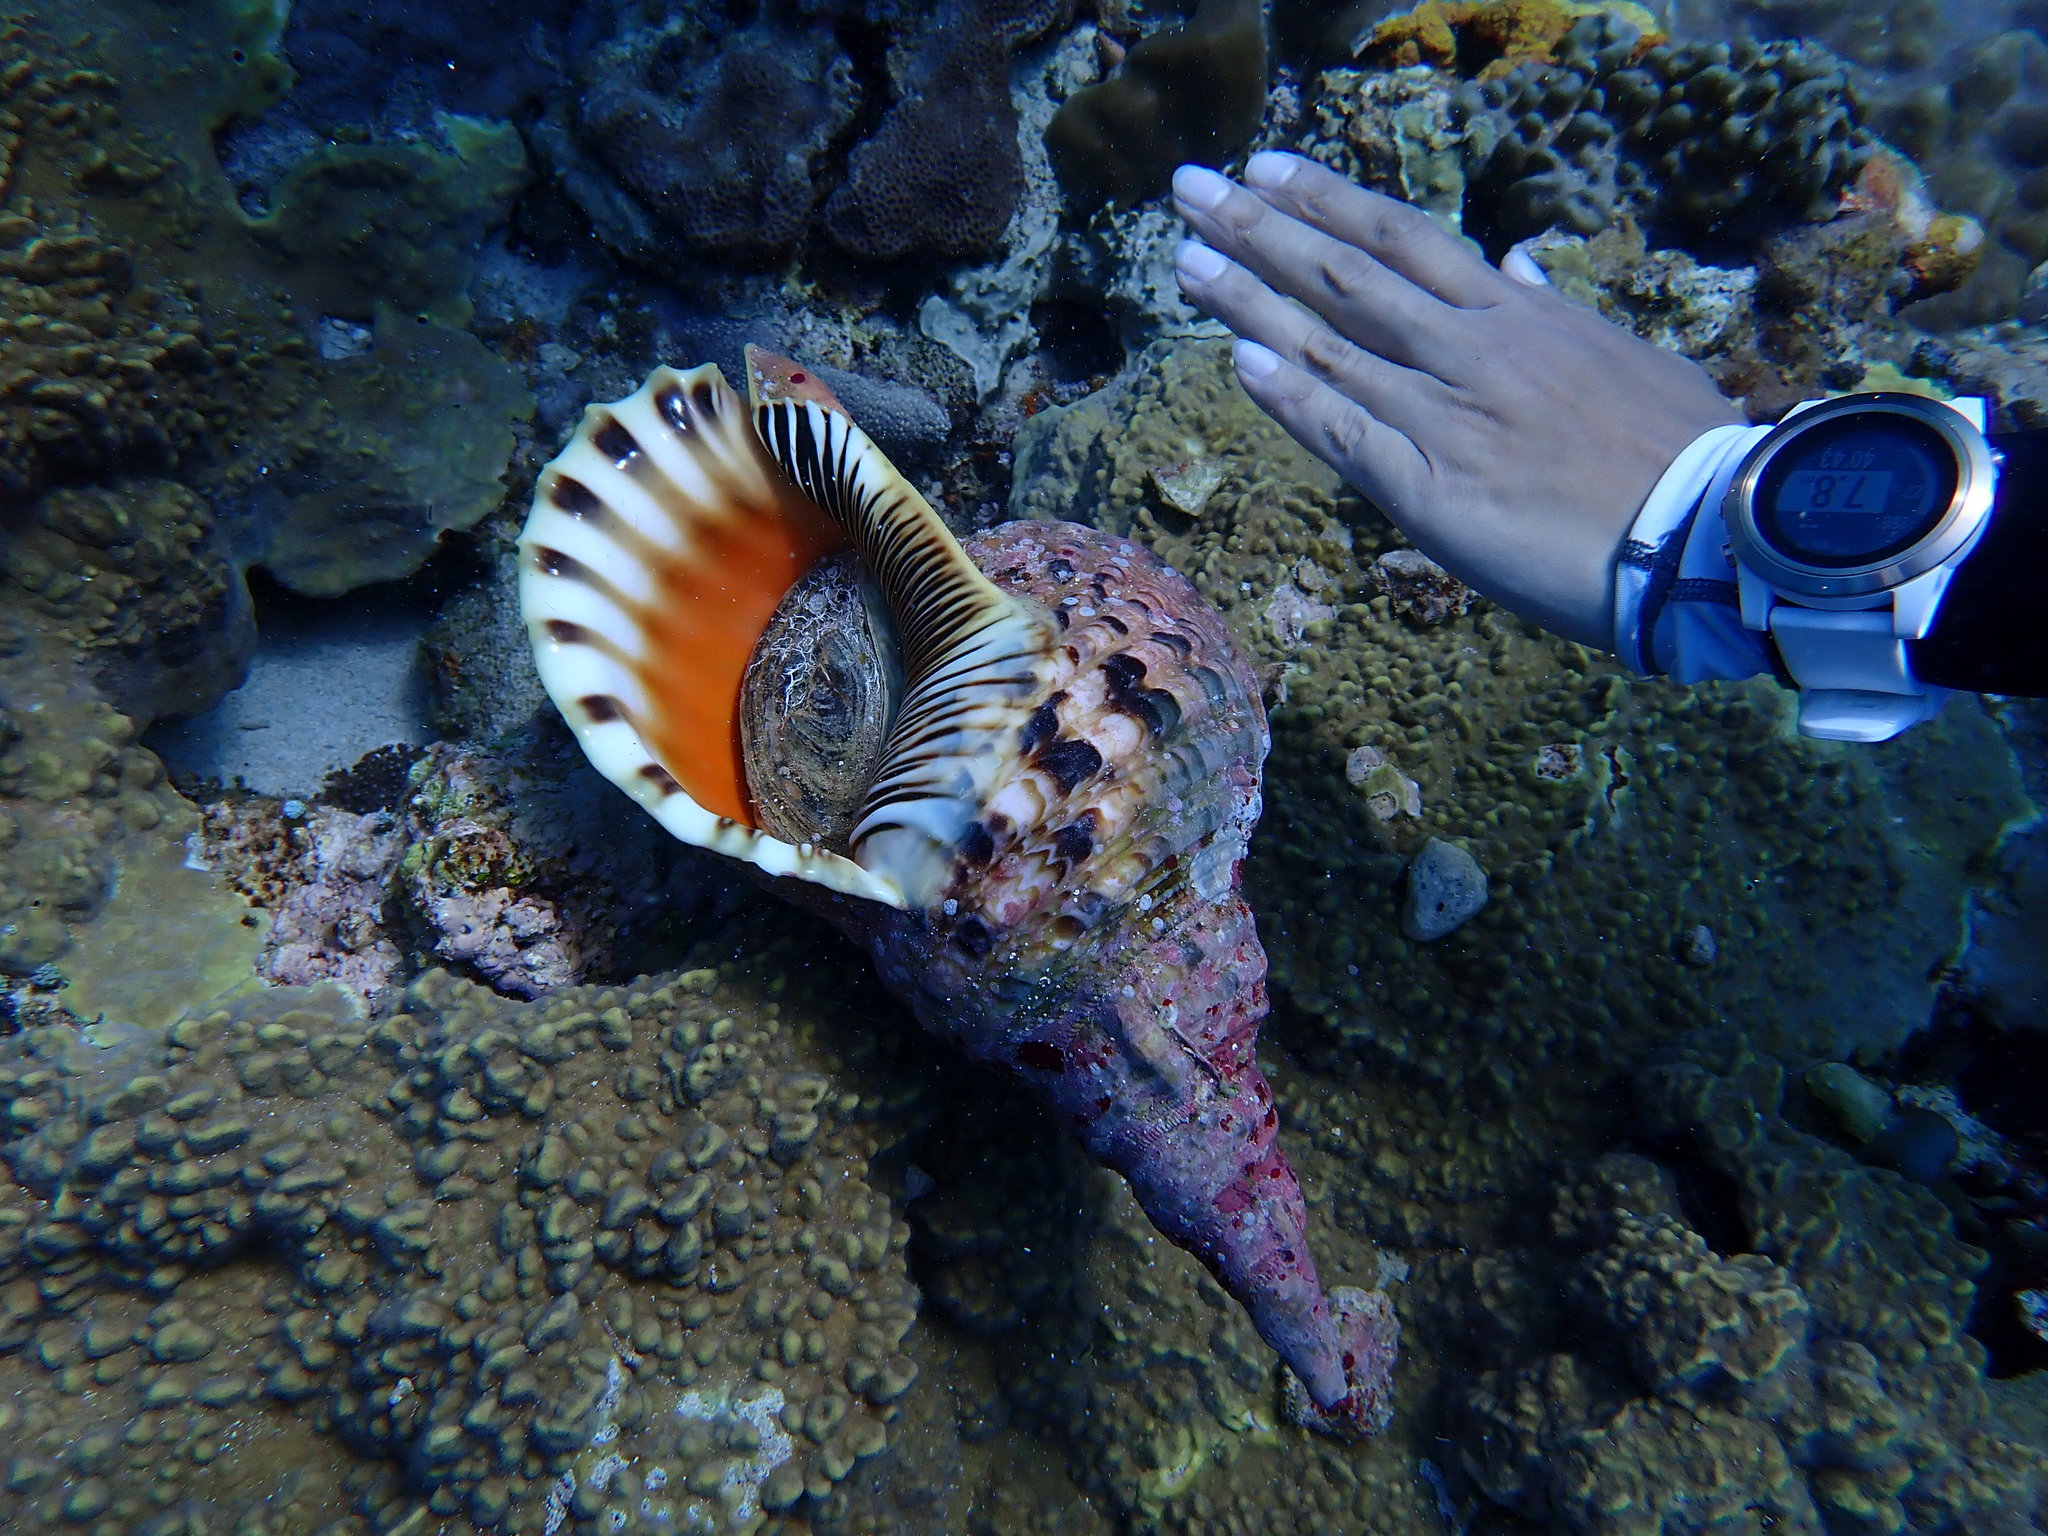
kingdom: Animalia
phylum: Mollusca
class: Gastropoda
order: Littorinimorpha
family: Charoniidae
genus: Charonia
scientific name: Charonia tritonis
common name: Pacific triton
